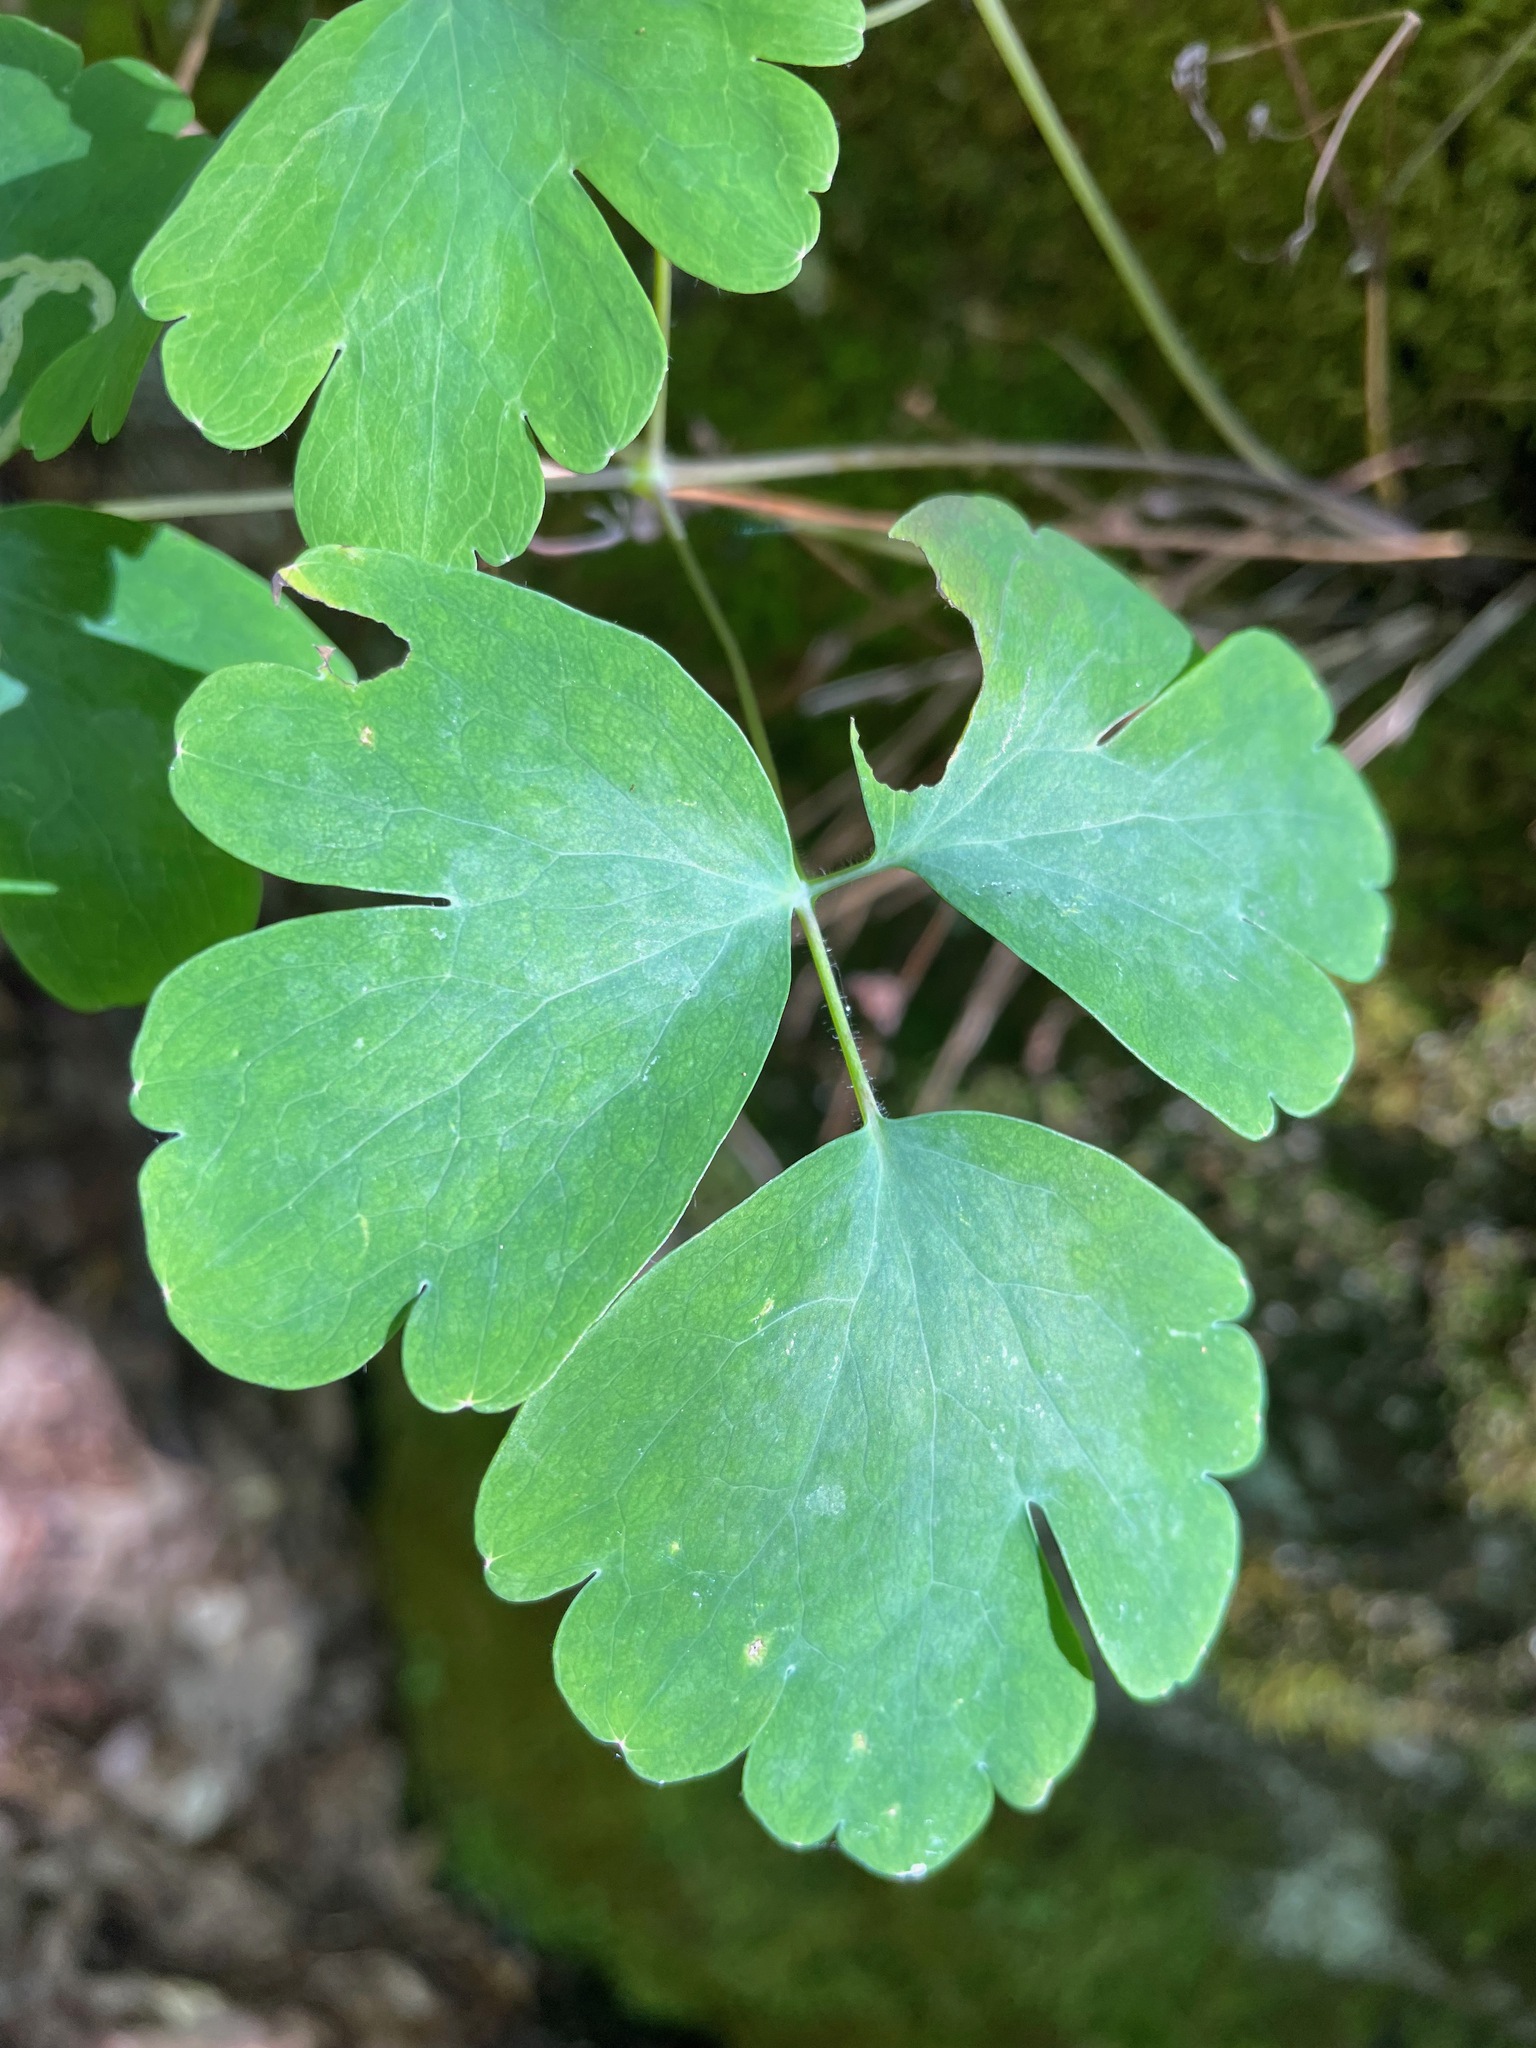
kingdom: Plantae
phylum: Tracheophyta
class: Magnoliopsida
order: Ranunculales
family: Ranunculaceae
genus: Aquilegia
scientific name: Aquilegia canadensis
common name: American columbine
